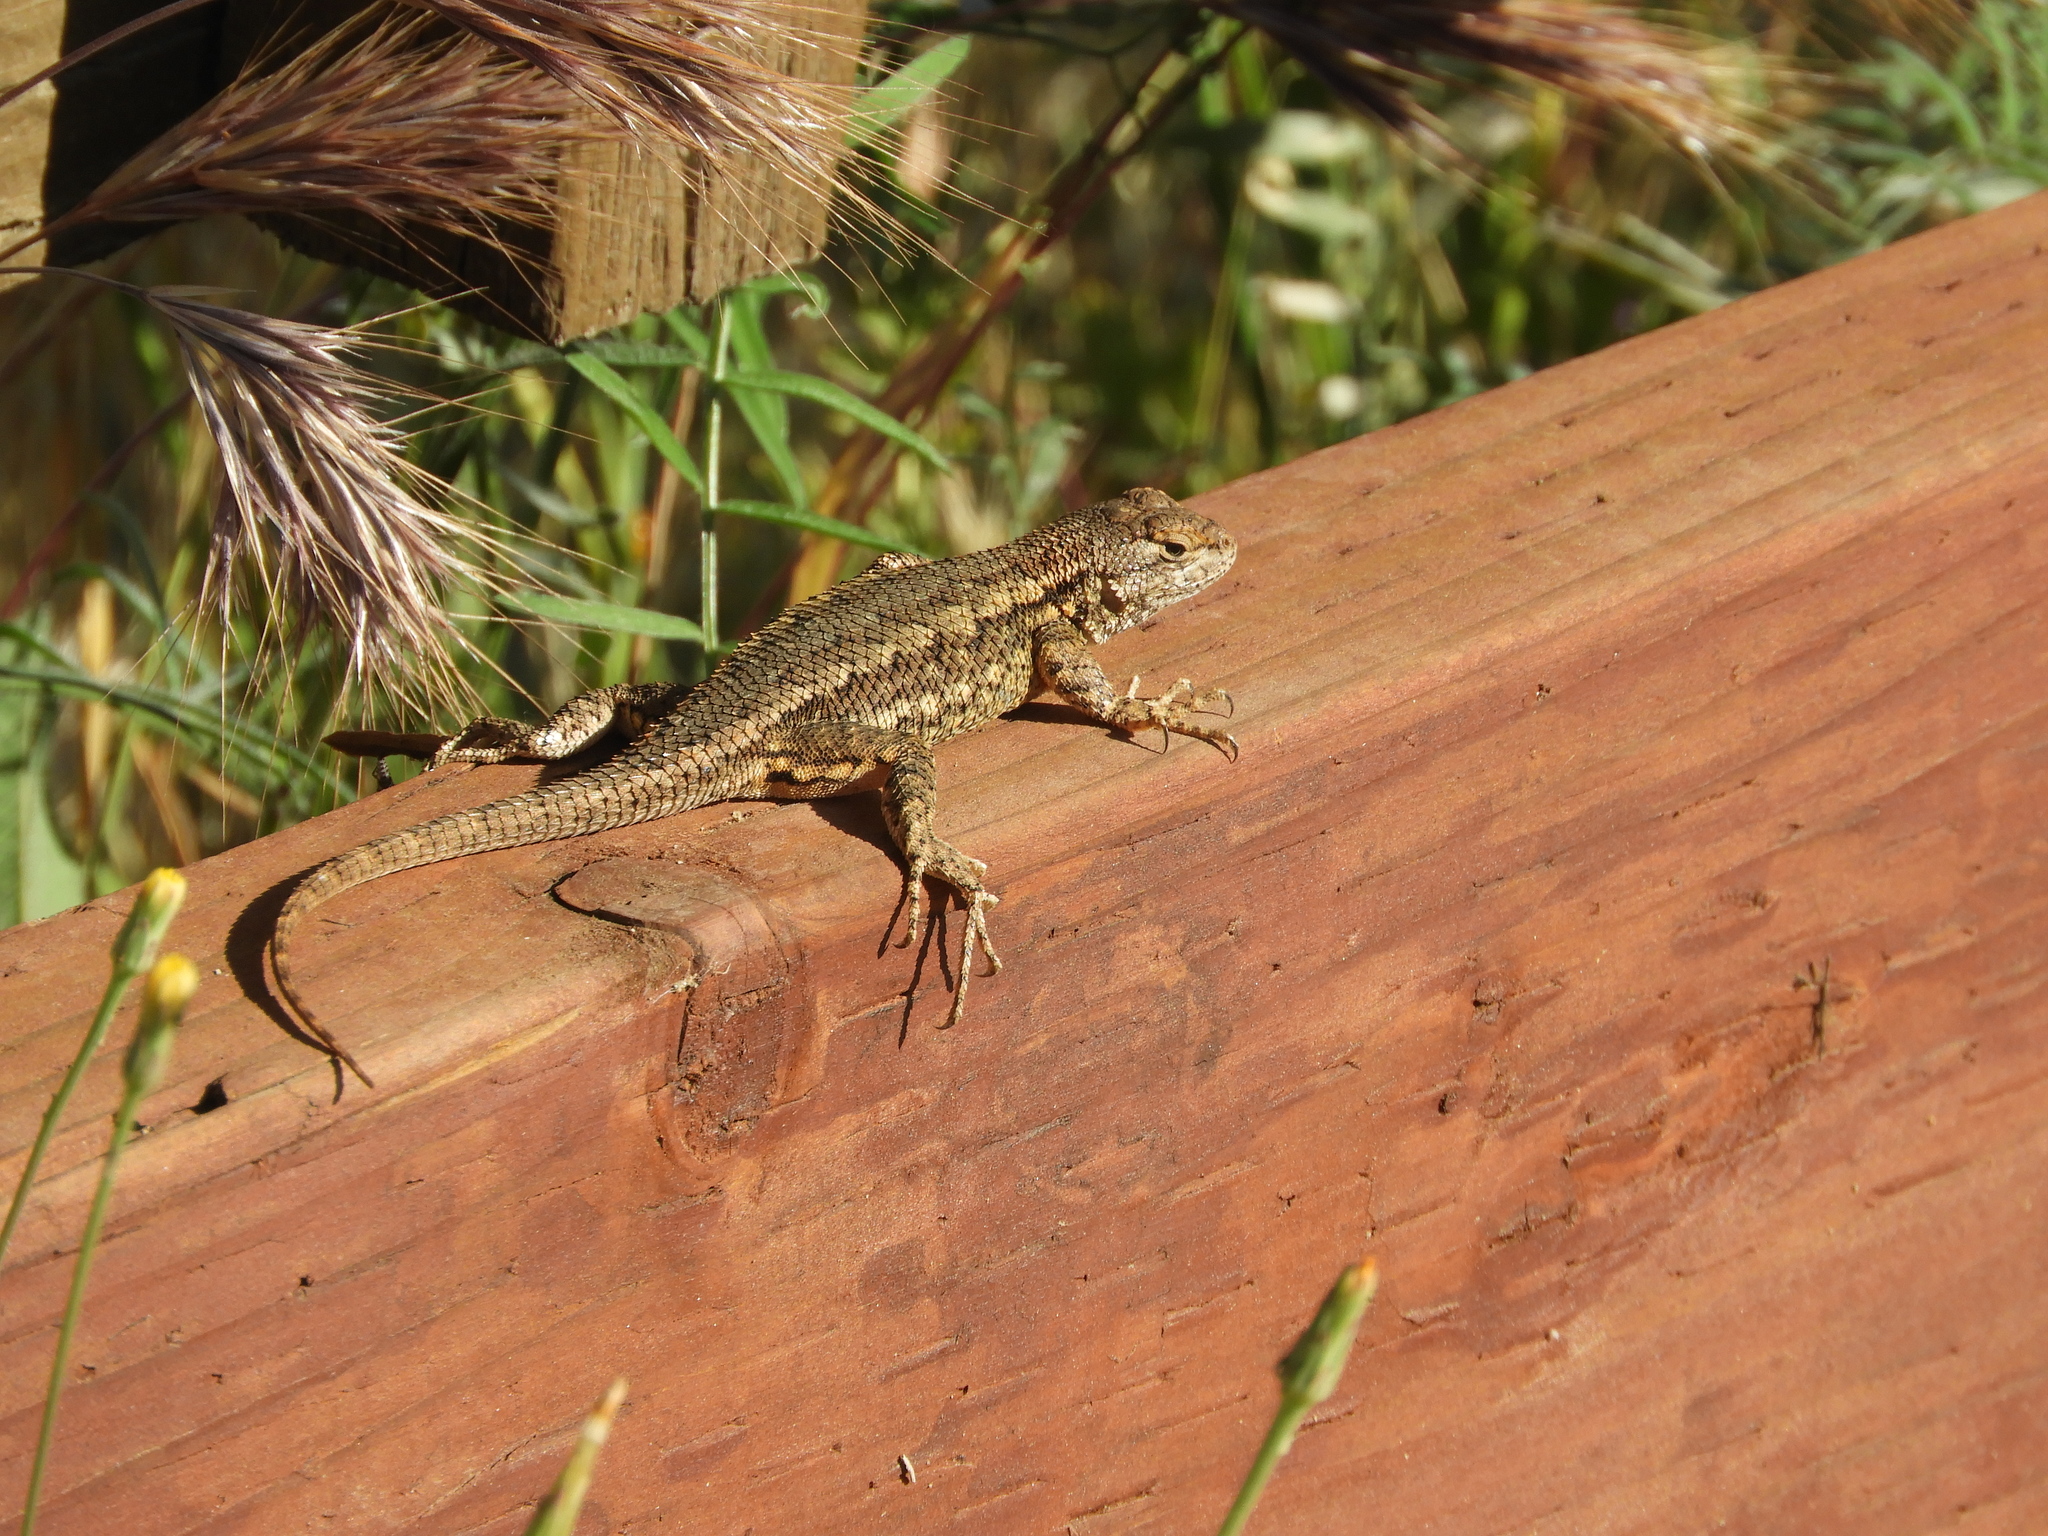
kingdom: Animalia
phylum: Chordata
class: Squamata
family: Phrynosomatidae
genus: Sceloporus
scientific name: Sceloporus occidentalis
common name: Western fence lizard
